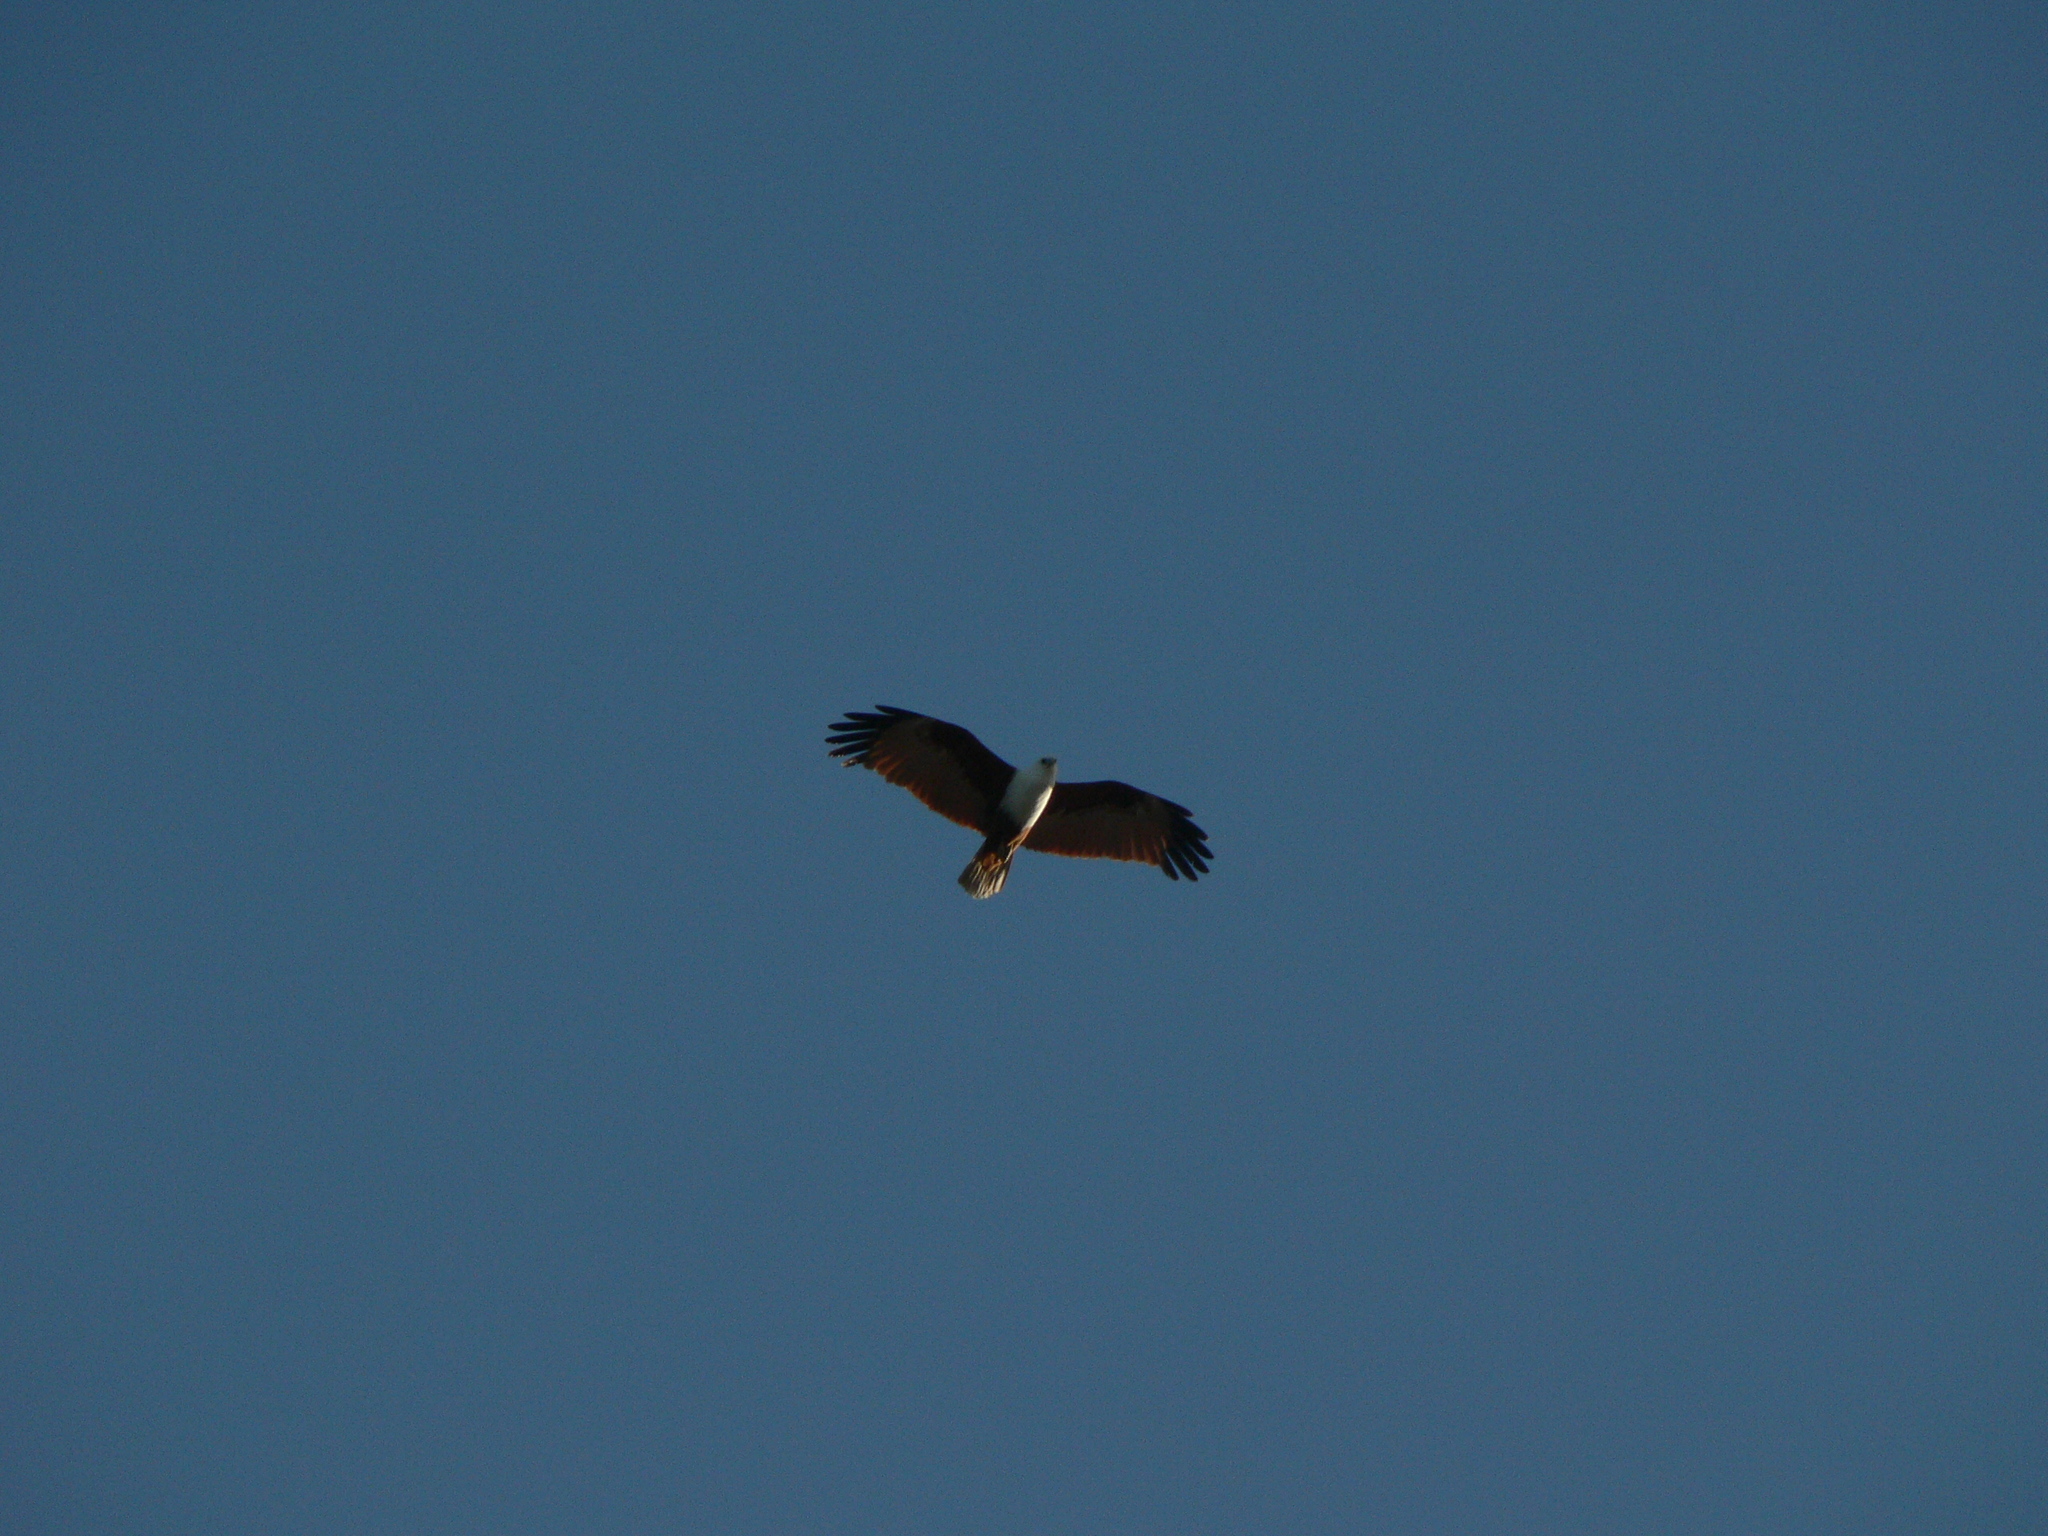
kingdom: Animalia
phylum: Chordata
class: Aves
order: Accipitriformes
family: Accipitridae
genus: Haliastur
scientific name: Haliastur indus
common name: Brahminy kite
